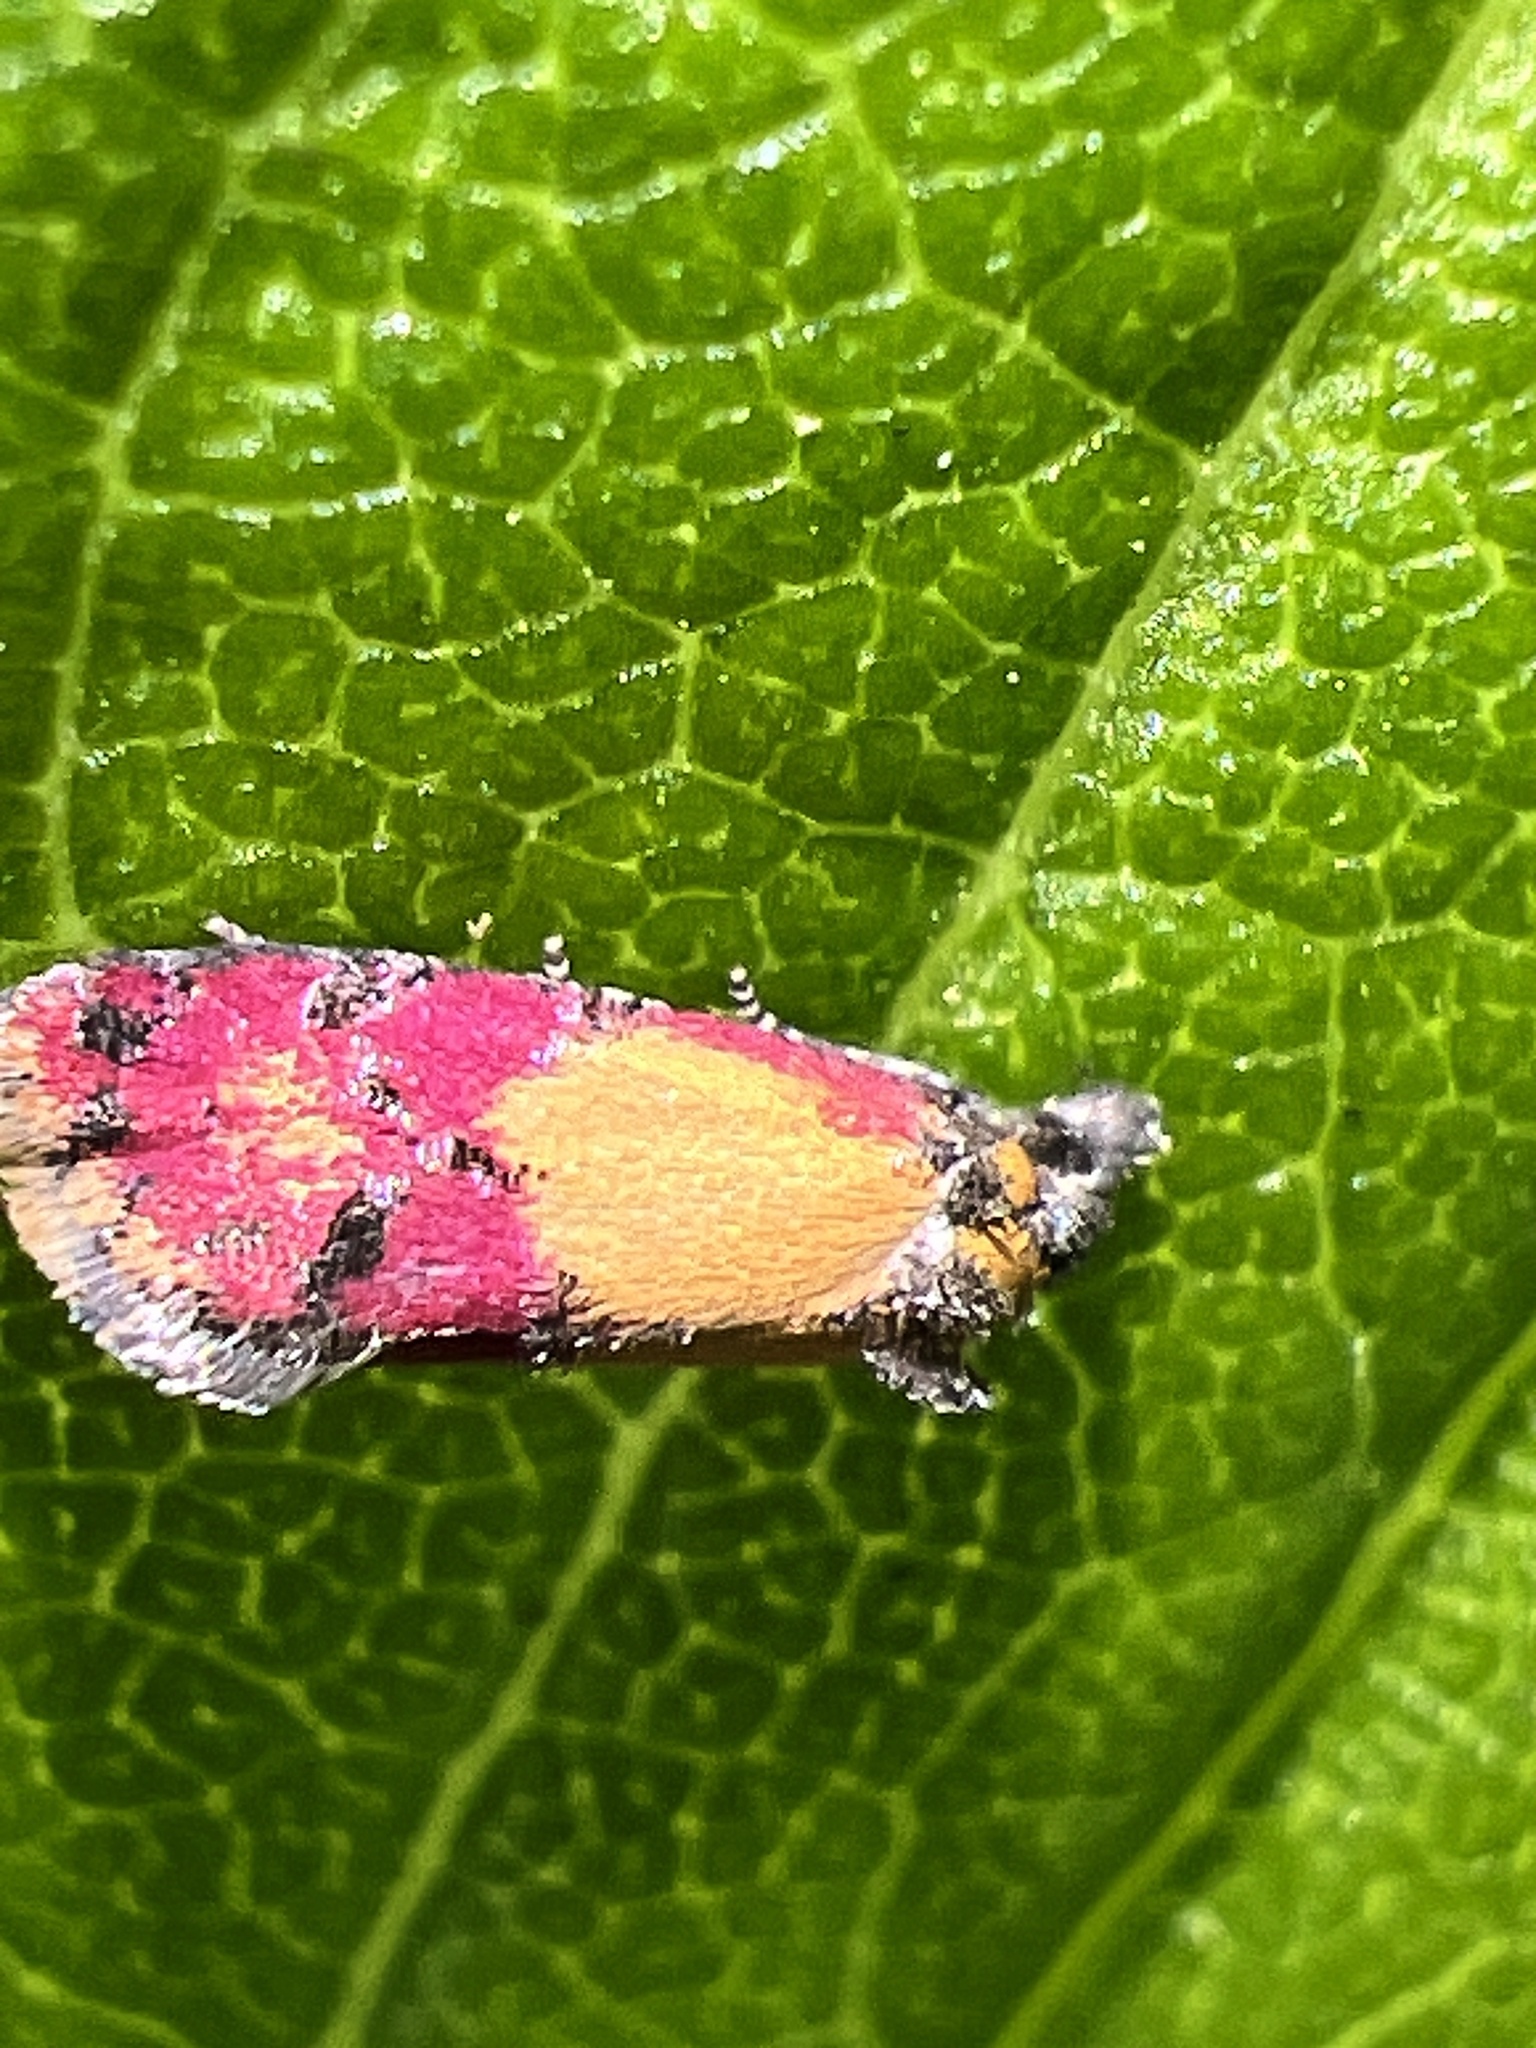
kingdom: Animalia
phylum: Arthropoda
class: Insecta
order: Lepidoptera
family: Tortricidae
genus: Conchylis
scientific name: Conchylis oenotherana
